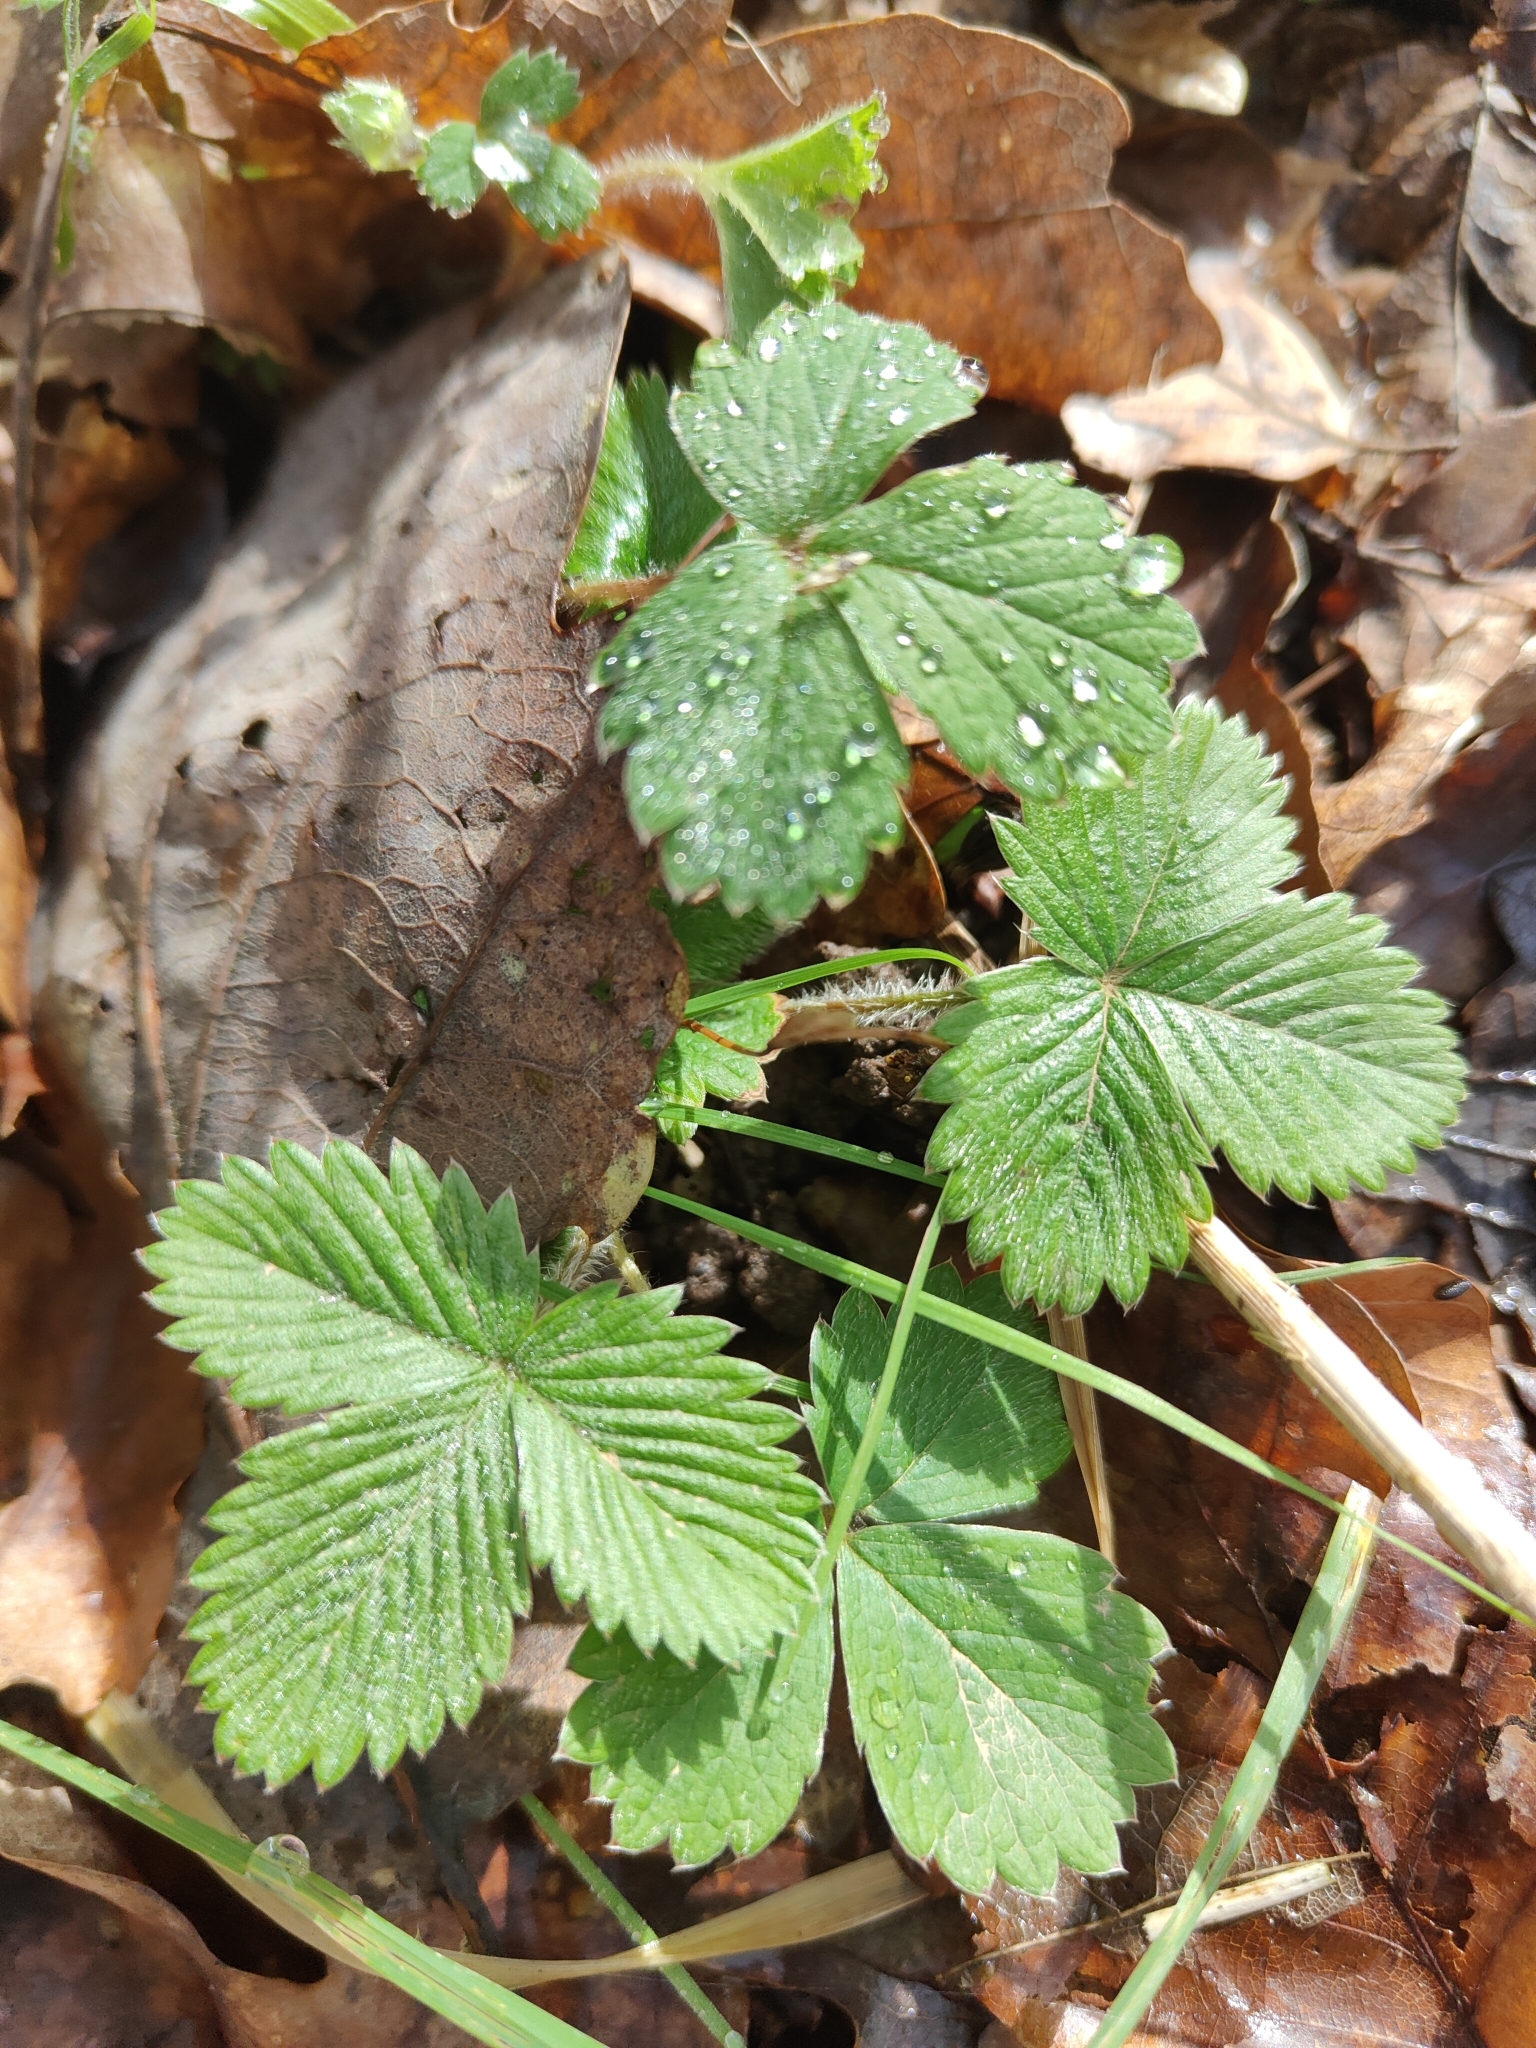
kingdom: Plantae
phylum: Tracheophyta
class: Magnoliopsida
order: Rosales
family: Rosaceae
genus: Fragaria
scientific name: Fragaria vesca
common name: Wild strawberry
